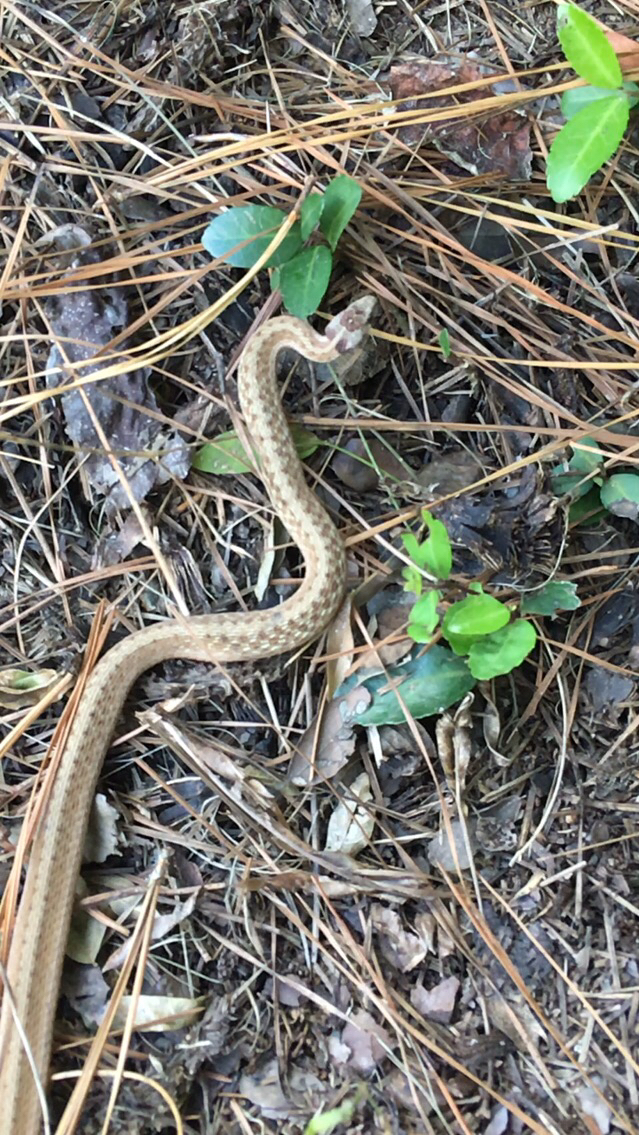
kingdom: Animalia
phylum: Chordata
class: Squamata
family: Colubridae
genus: Storeria
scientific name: Storeria dekayi
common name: (dekay’s) brown snake
